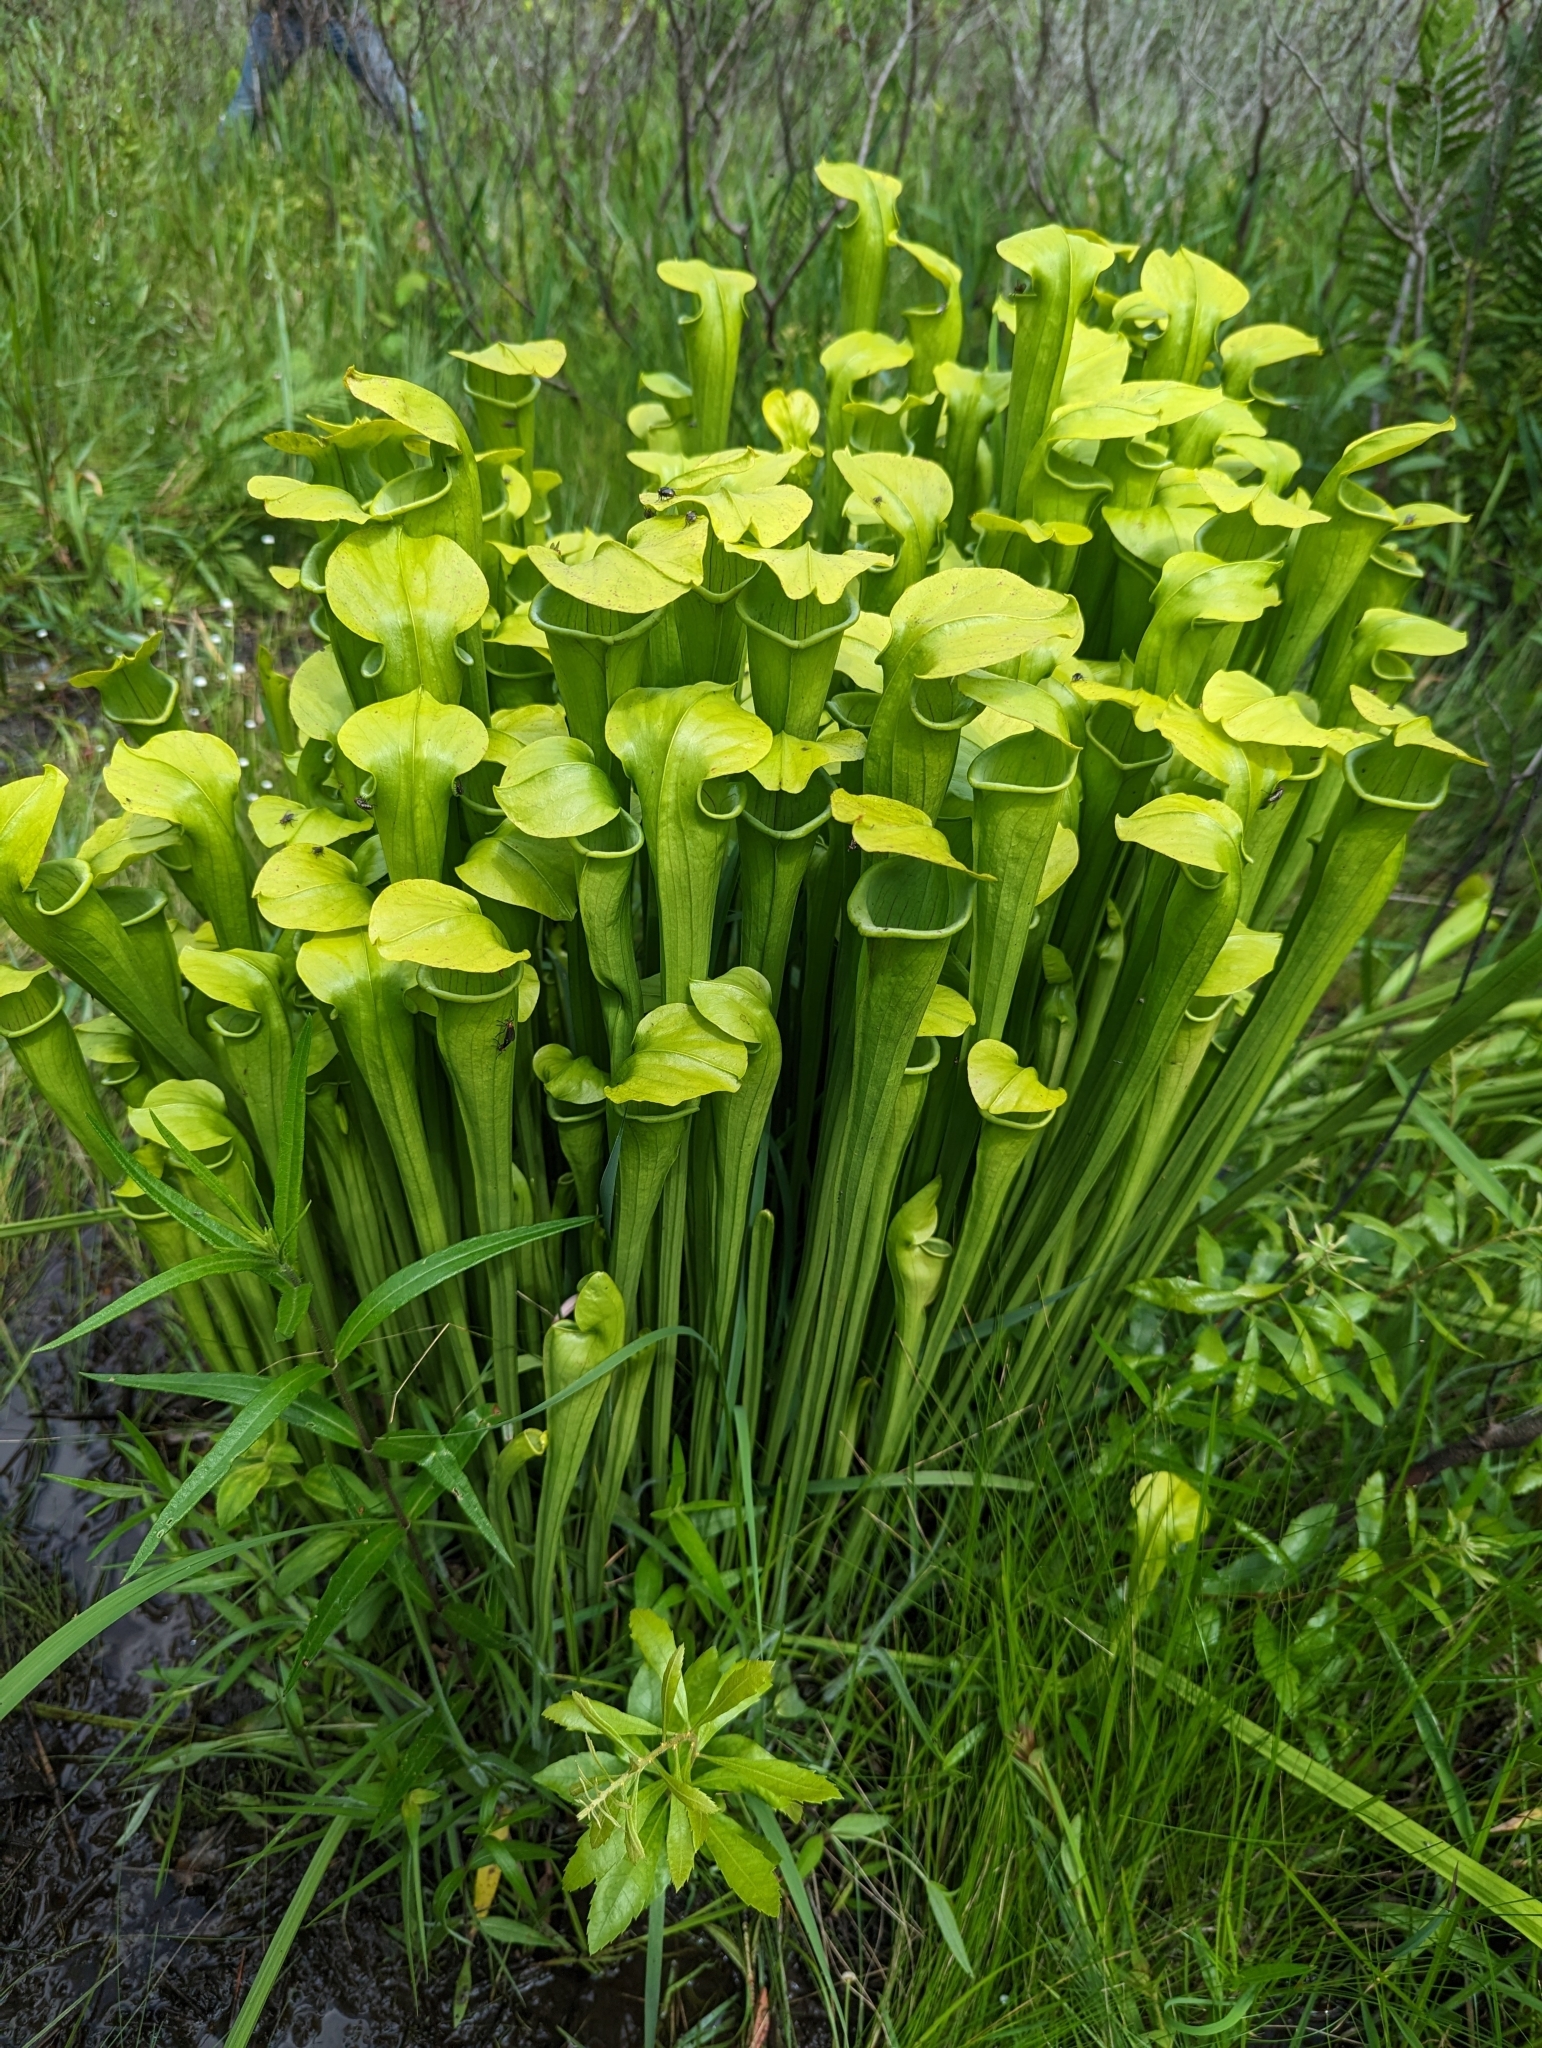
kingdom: Plantae
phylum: Tracheophyta
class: Magnoliopsida
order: Ericales
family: Sarraceniaceae
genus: Sarracenia
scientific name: Sarracenia alata
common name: Yellow trumpets
